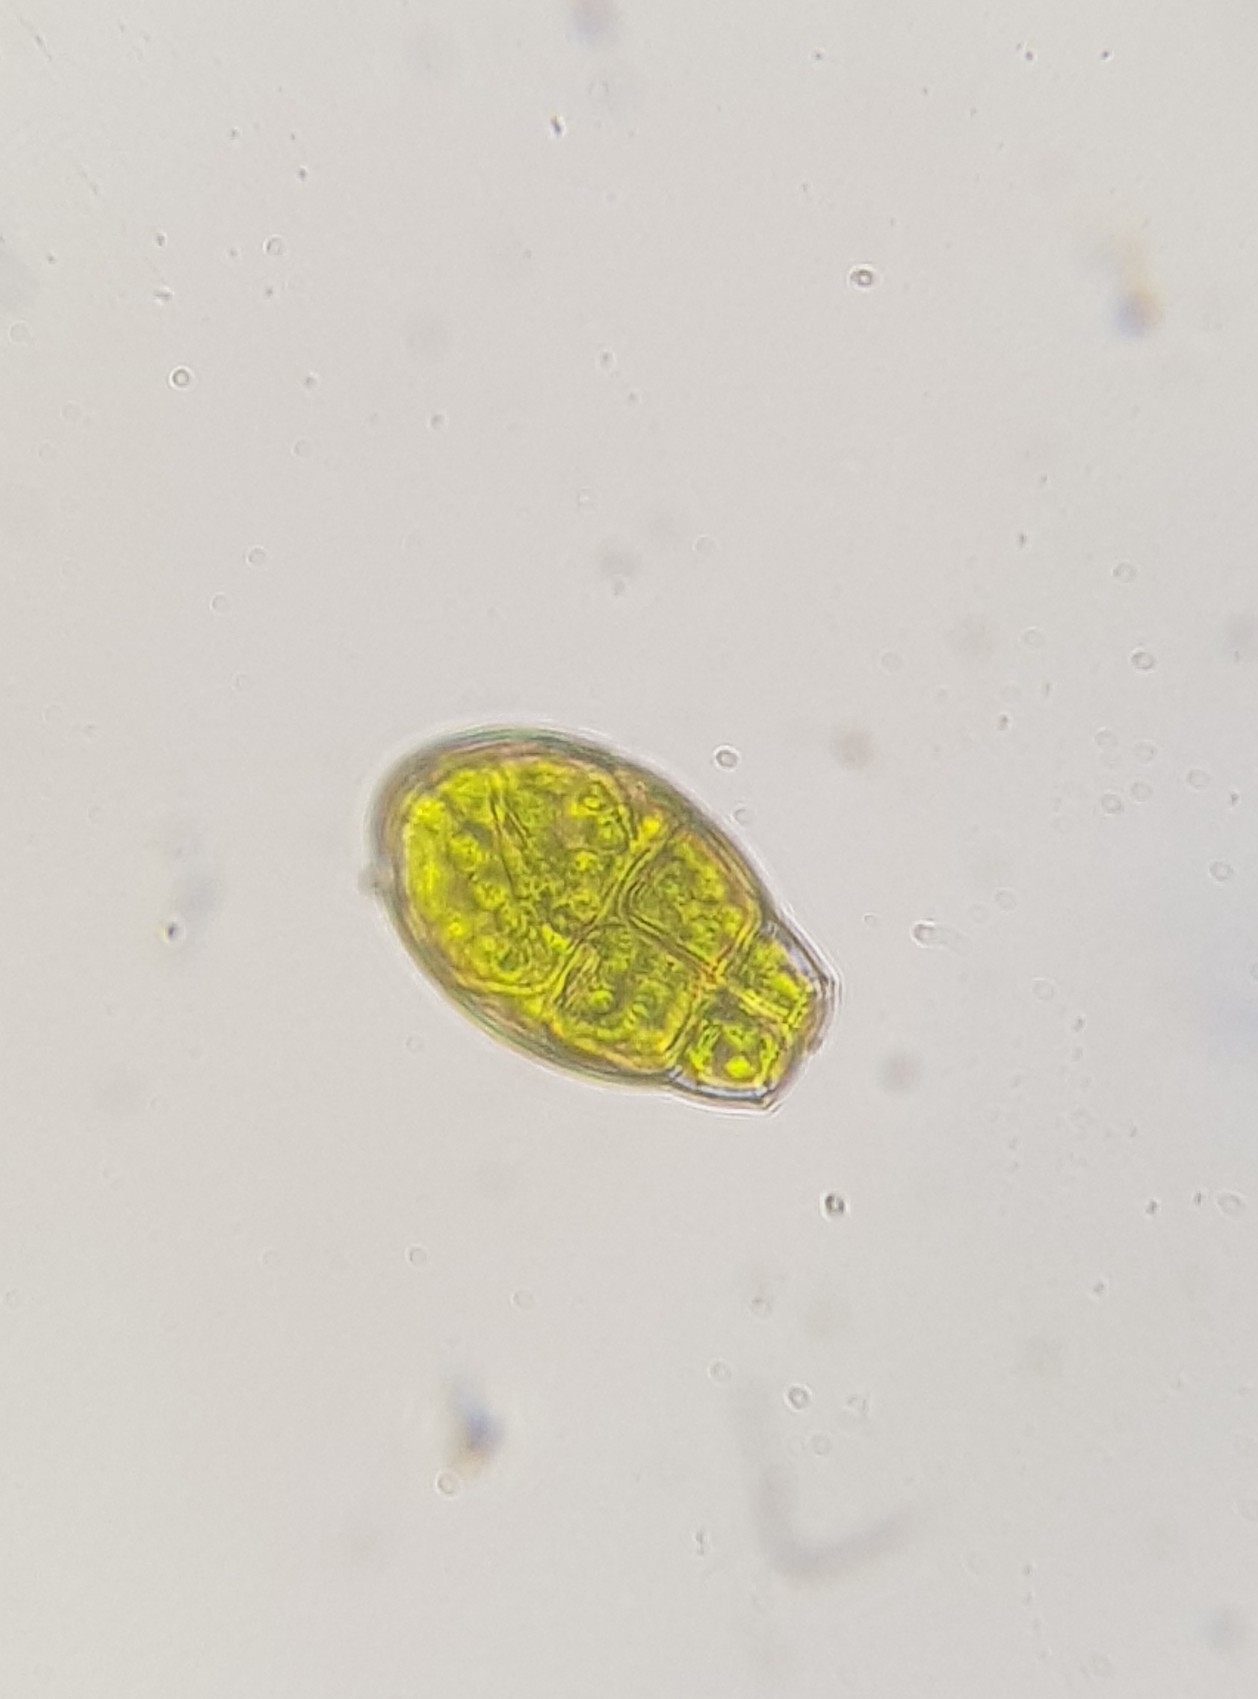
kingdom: Plantae
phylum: Bryophyta
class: Bryopsida
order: Orthotrichales
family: Orthotrichaceae
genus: Zygodon
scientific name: Zygodon viridissimus
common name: Green yoke moss
